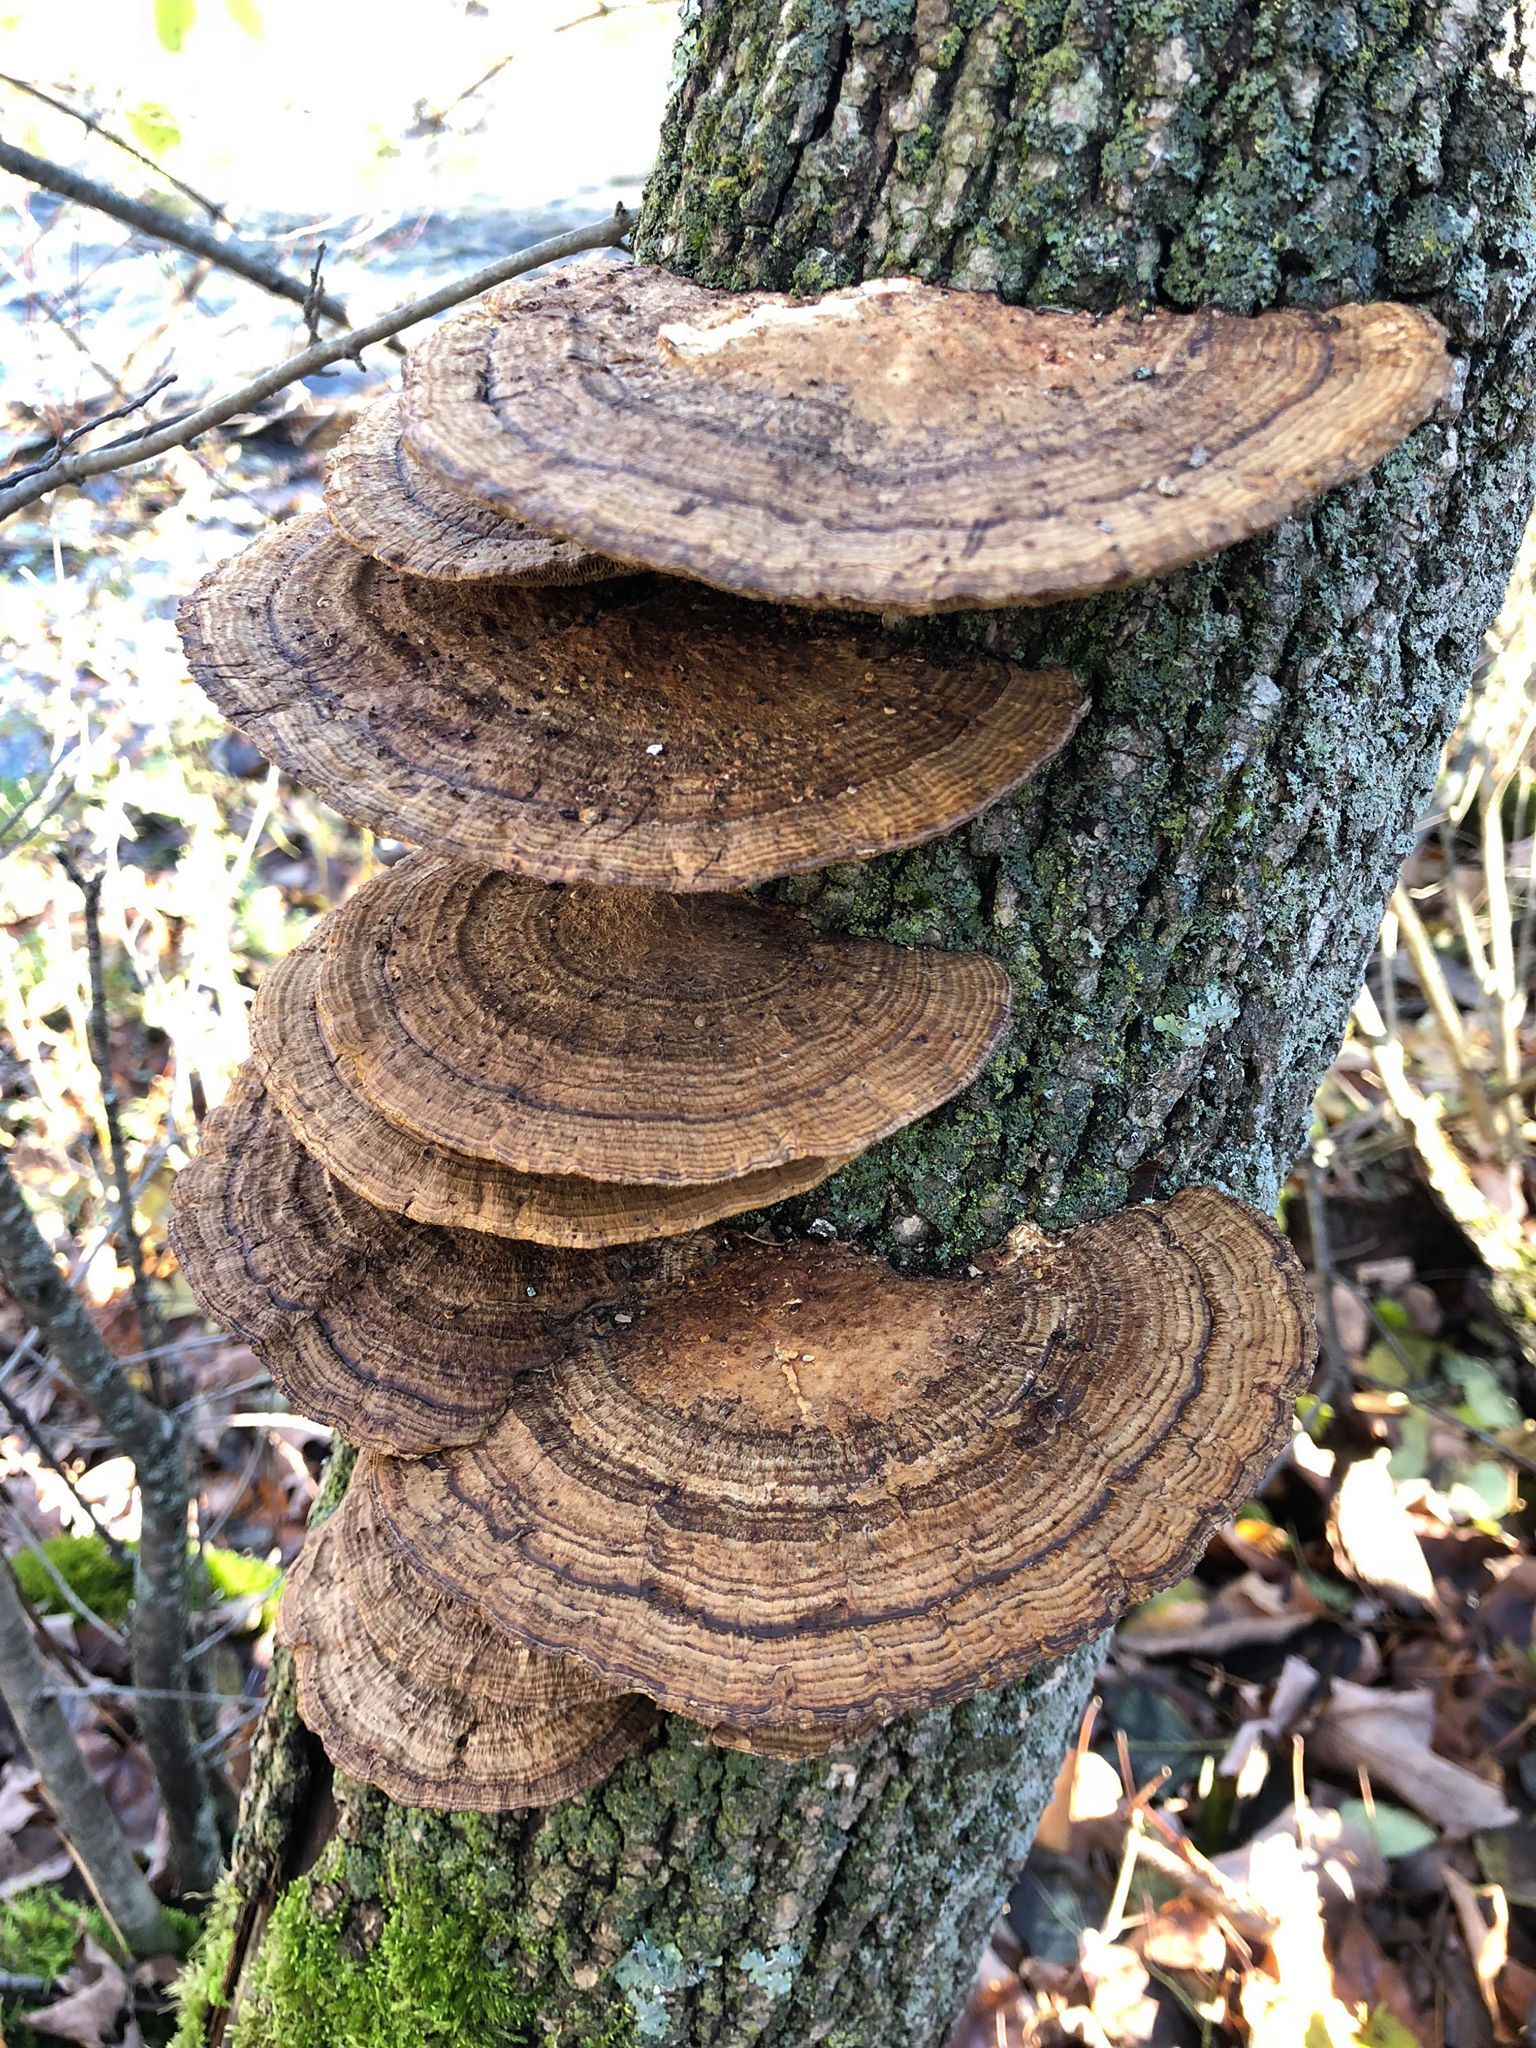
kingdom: Fungi
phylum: Basidiomycota
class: Agaricomycetes
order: Polyporales
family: Polyporaceae
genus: Daedaleopsis
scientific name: Daedaleopsis confragosa
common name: Blushing bracket
